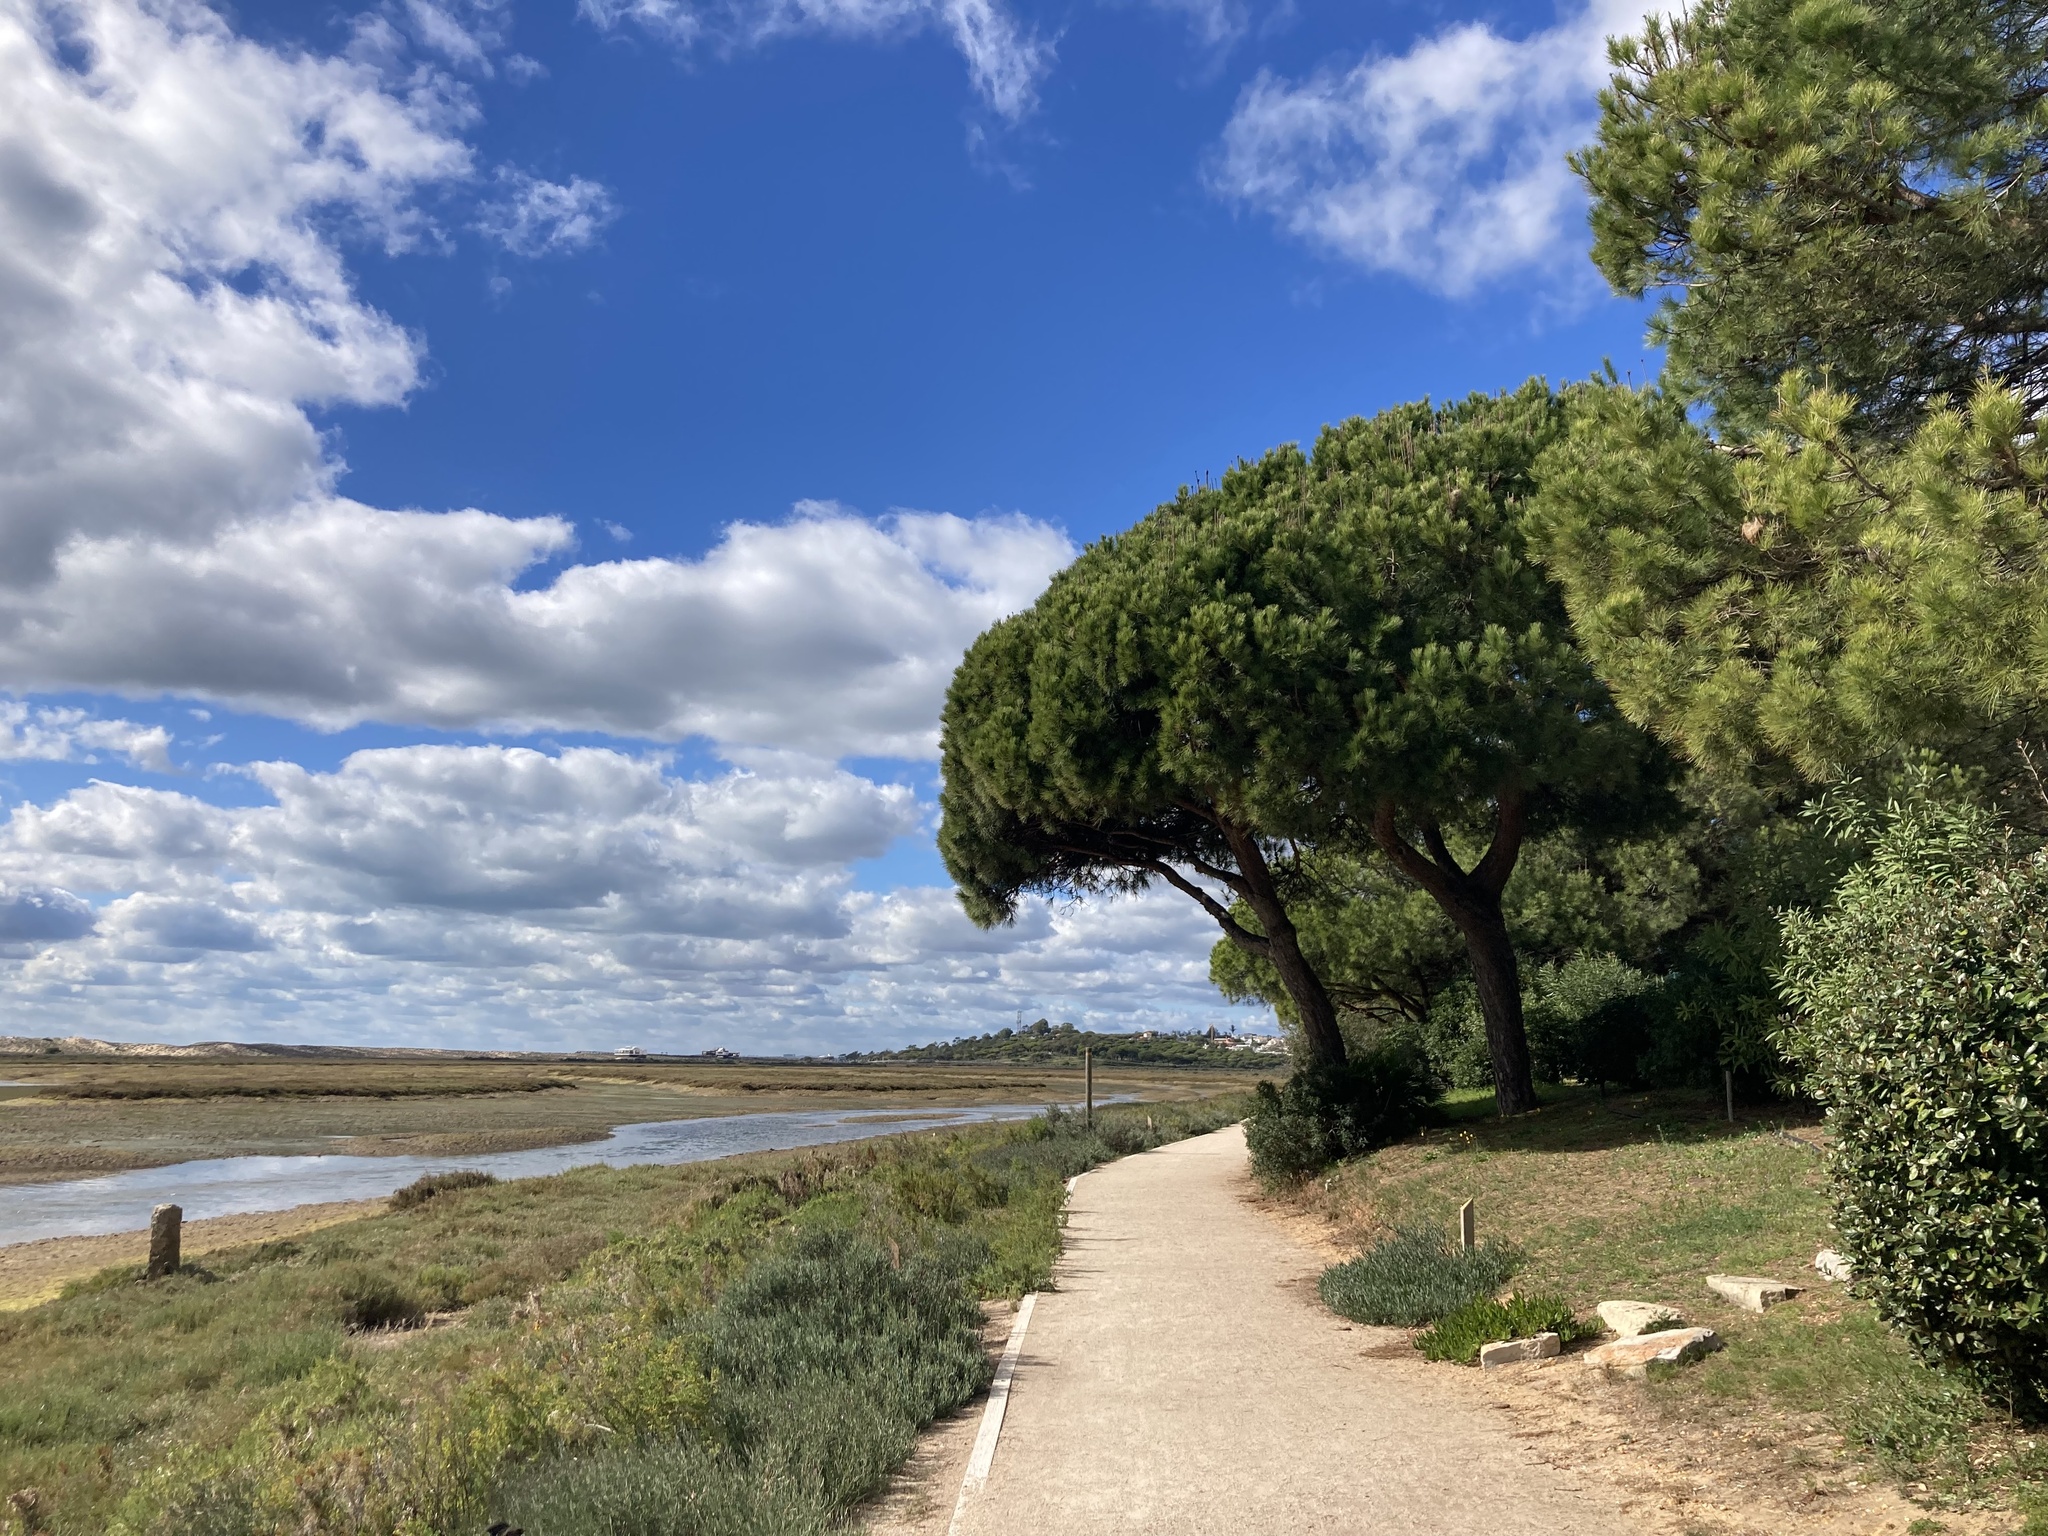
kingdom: Plantae
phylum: Tracheophyta
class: Pinopsida
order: Pinales
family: Pinaceae
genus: Pinus
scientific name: Pinus pinea
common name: Italian stone pine
